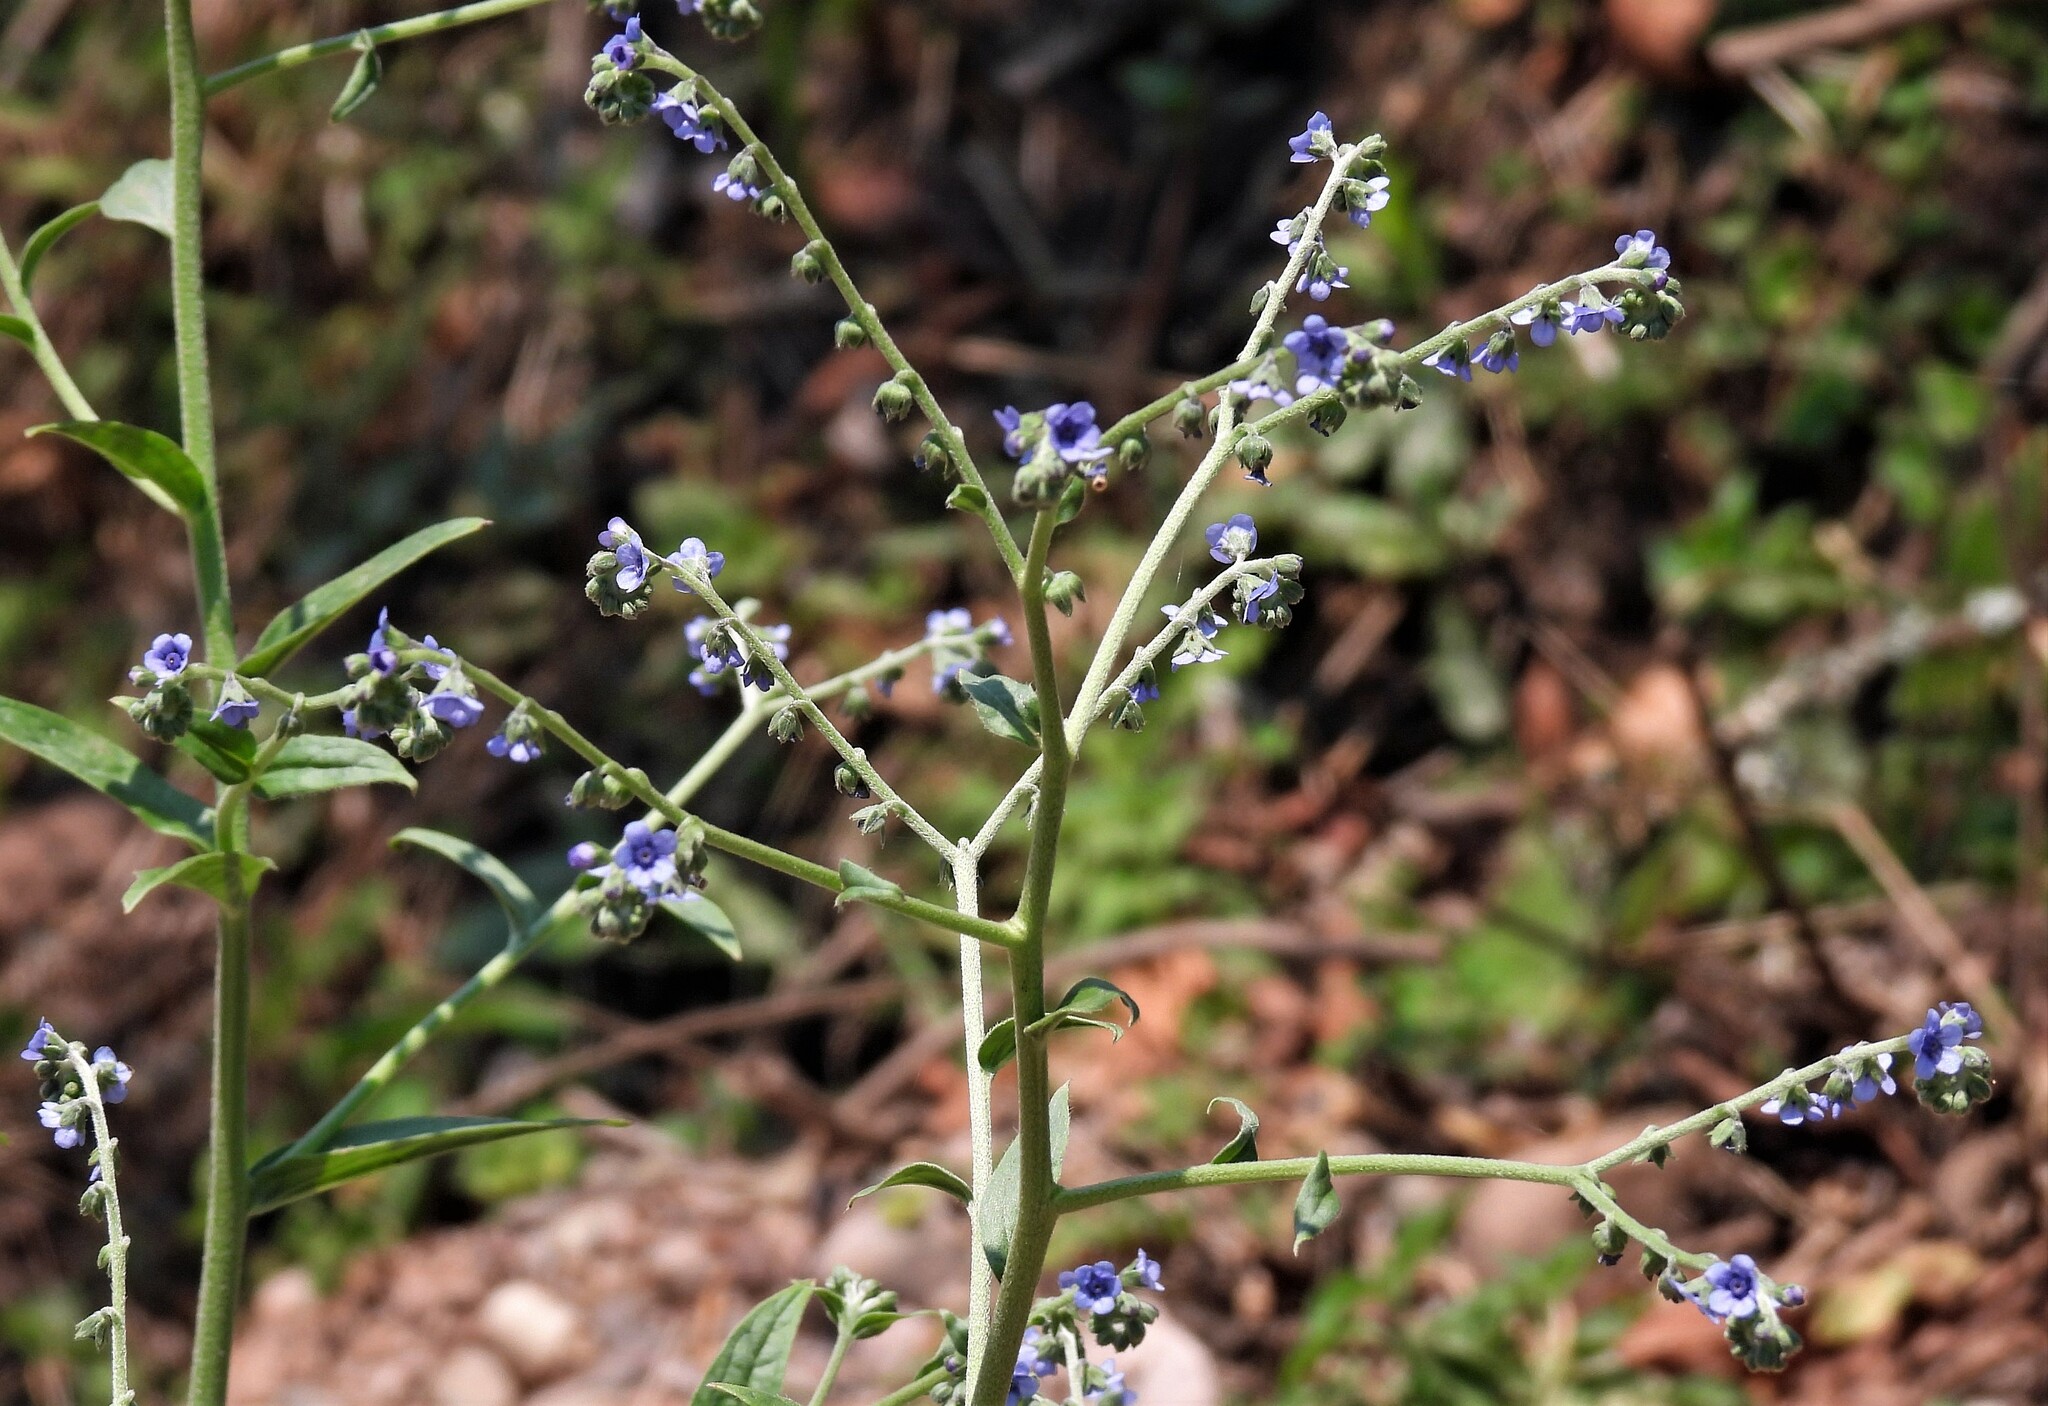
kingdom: Plantae
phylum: Tracheophyta
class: Magnoliopsida
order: Boraginales
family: Boraginaceae
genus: Cynoglossum
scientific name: Cynoglossum amabile
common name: Chinese hound's tongue
